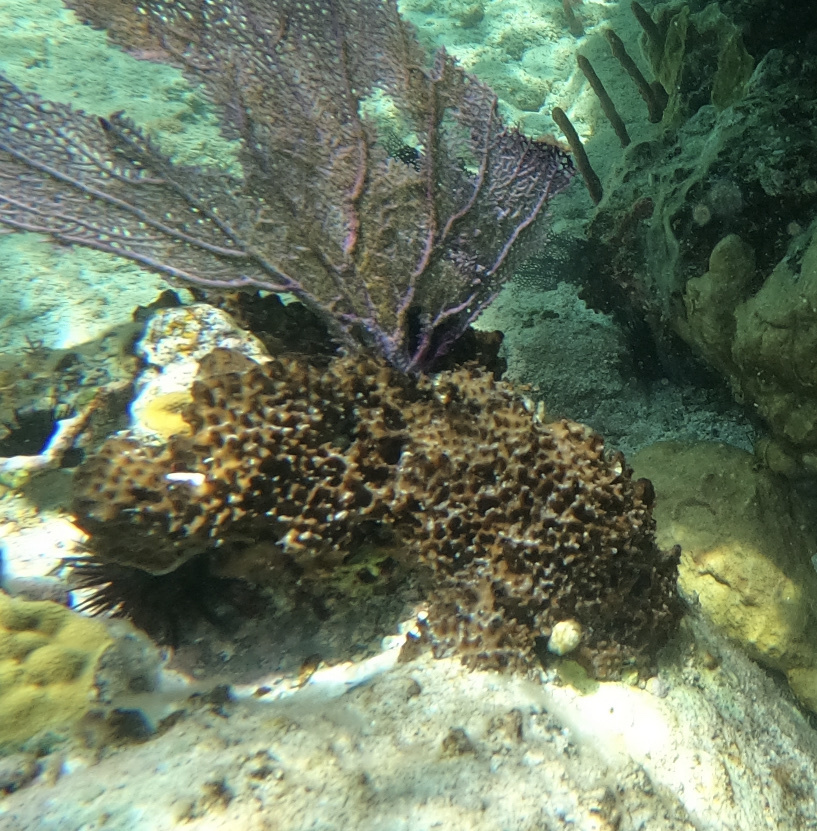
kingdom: Animalia
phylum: Porifera
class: Demospongiae
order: Dictyoceratida
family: Irciniidae
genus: Ircinia
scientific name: Ircinia felix
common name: Stinker sponge
